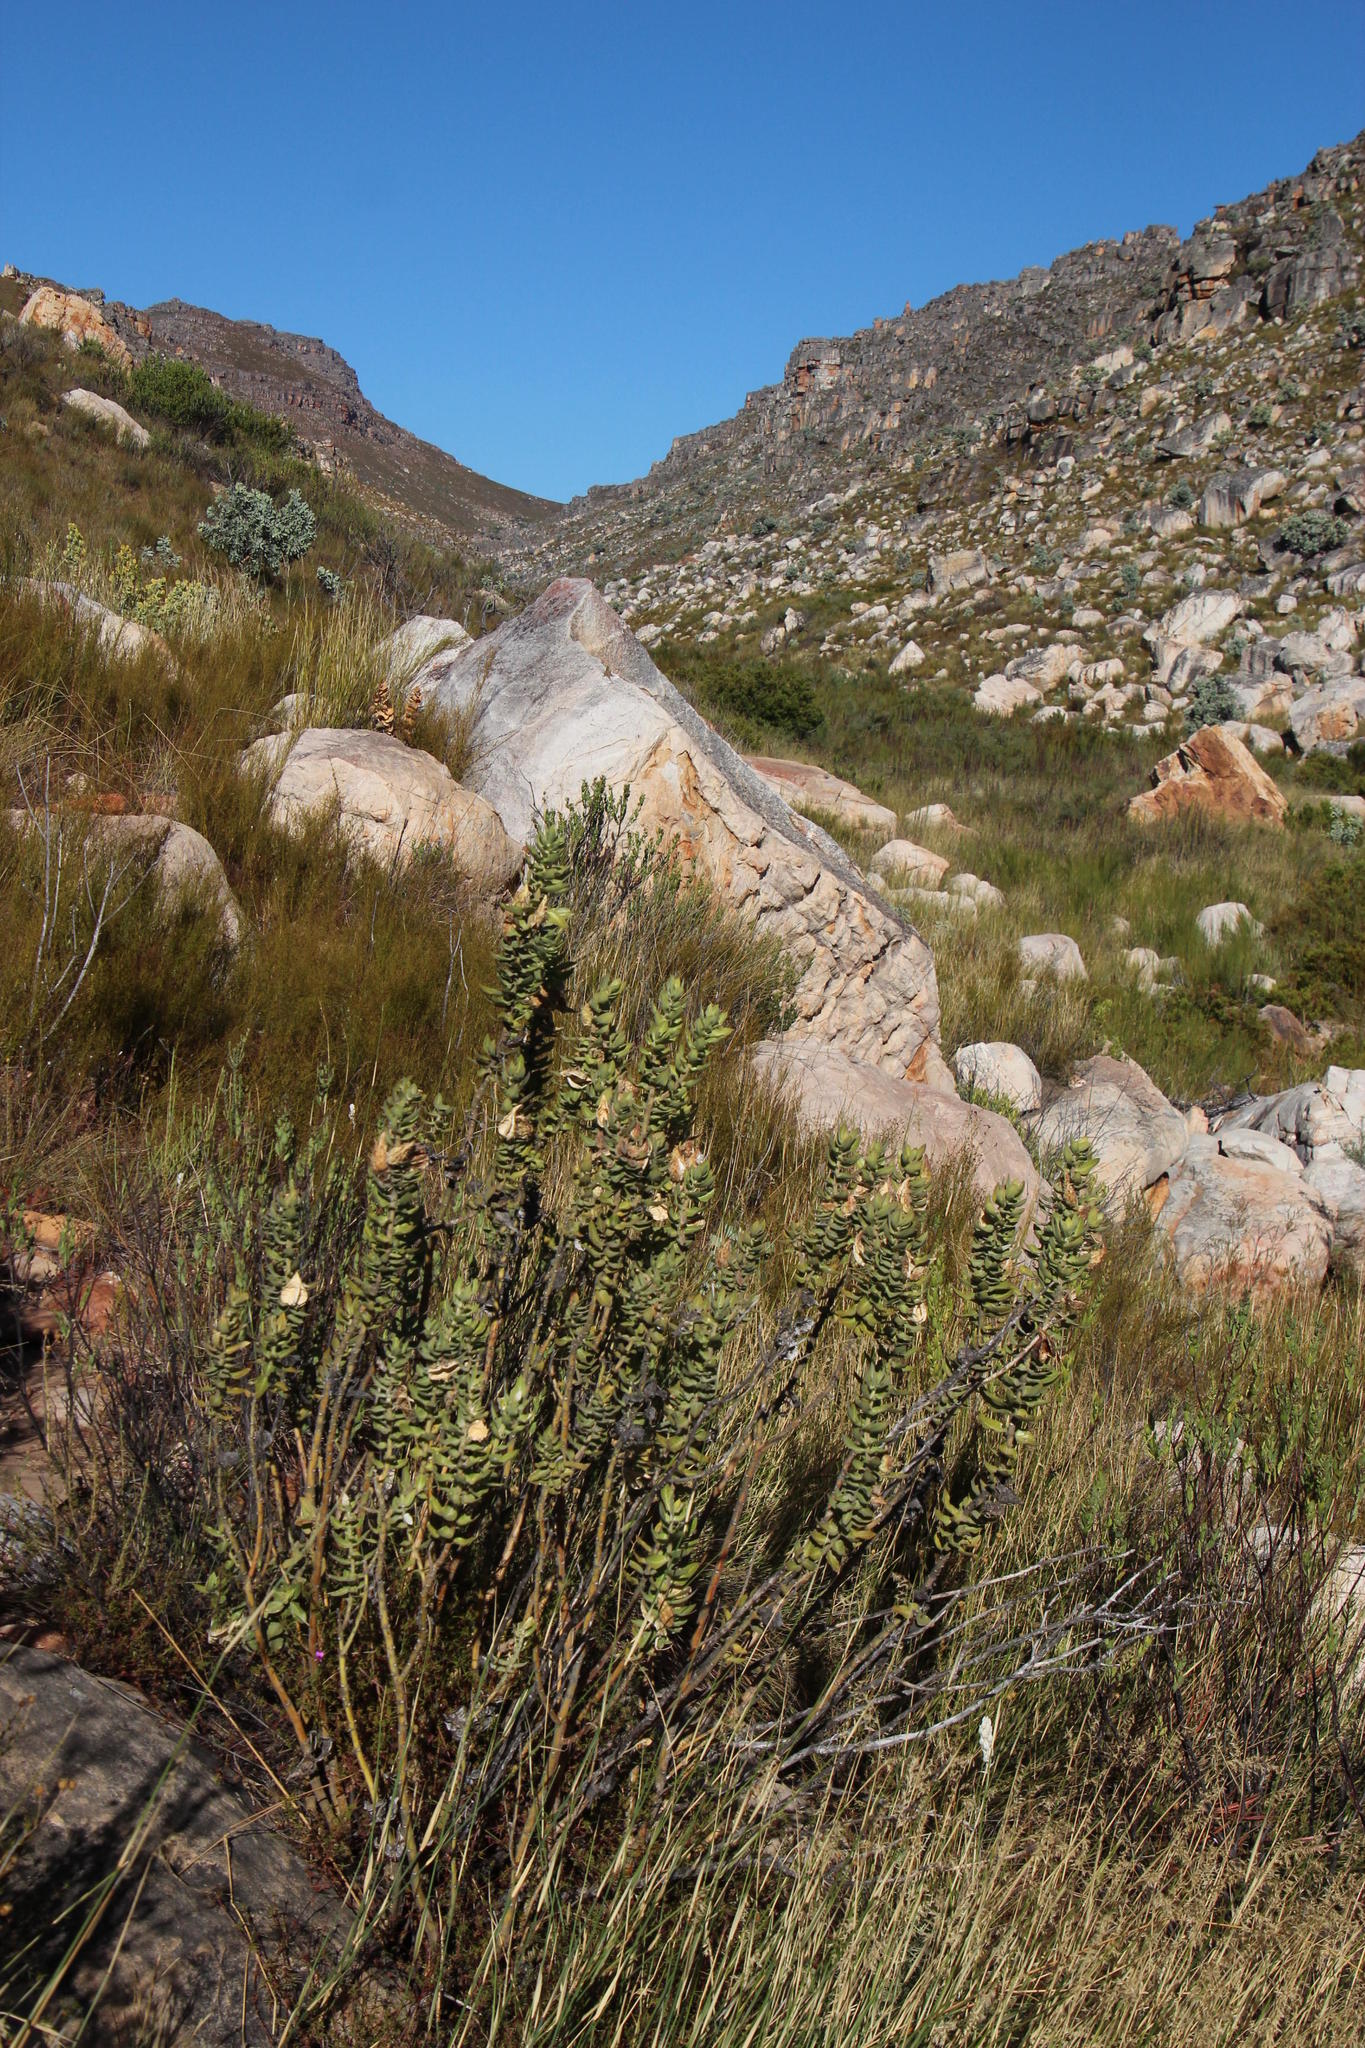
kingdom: Plantae
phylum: Tracheophyta
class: Magnoliopsida
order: Gentianales
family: Apocynaceae
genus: Gomphocarpus
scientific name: Gomphocarpus cancellatus
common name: Wild cotton
